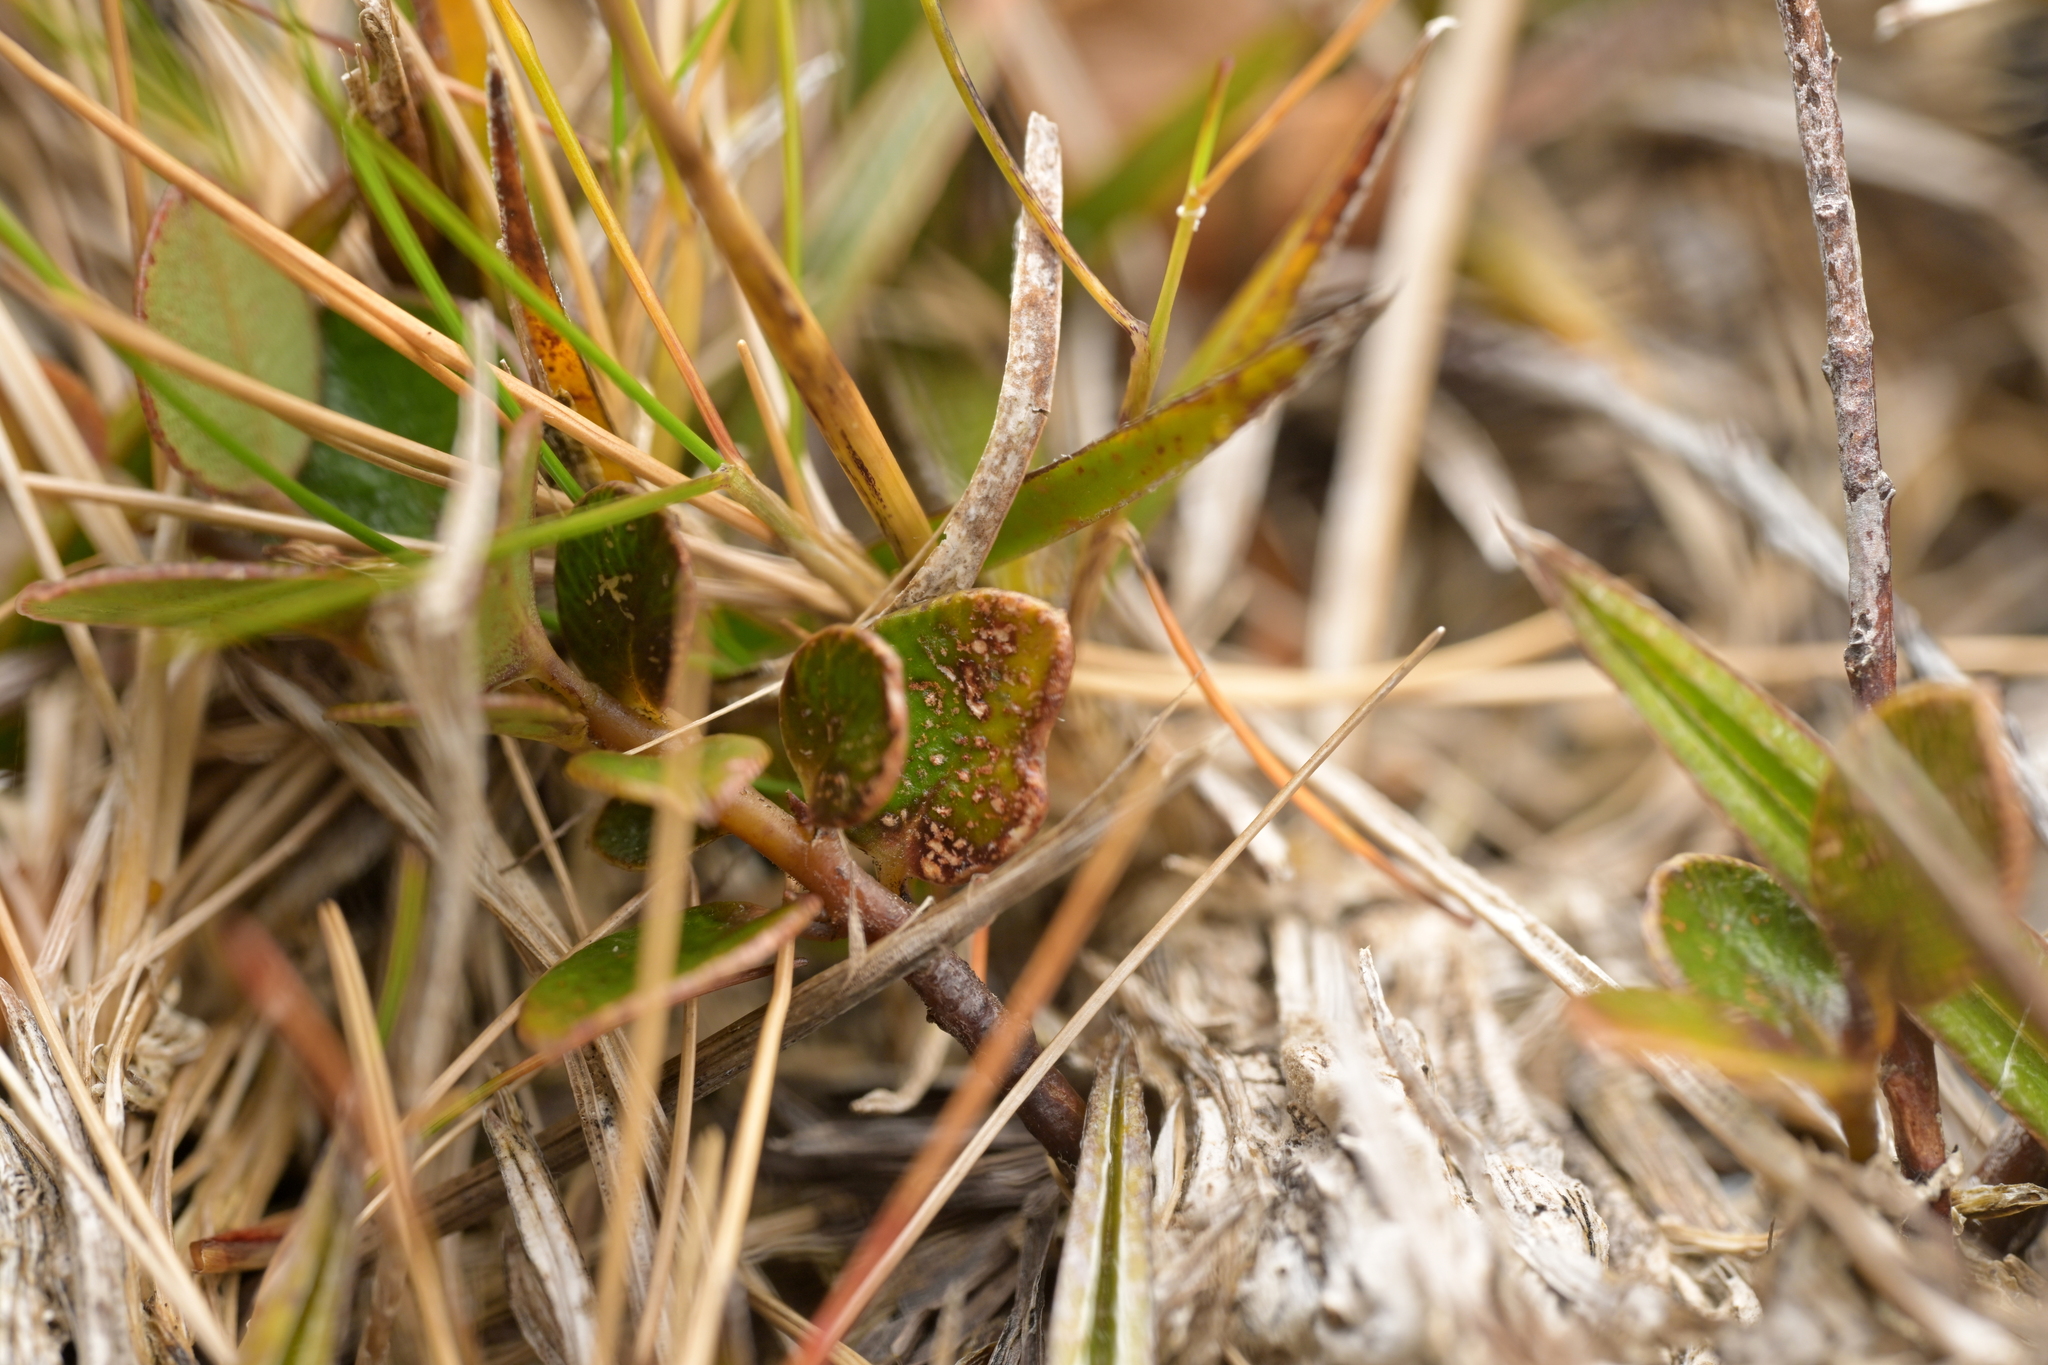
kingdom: Plantae
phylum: Tracheophyta
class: Magnoliopsida
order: Ericales
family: Primulaceae
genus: Myrsine
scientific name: Myrsine nummularia
